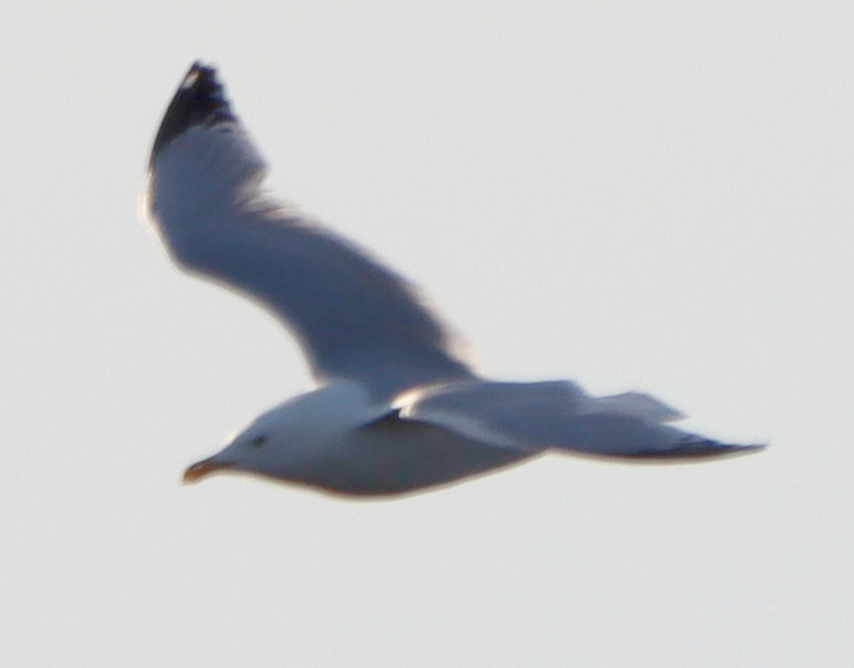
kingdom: Animalia
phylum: Chordata
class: Aves
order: Charadriiformes
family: Laridae
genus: Larus
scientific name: Larus argentatus
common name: Herring gull
